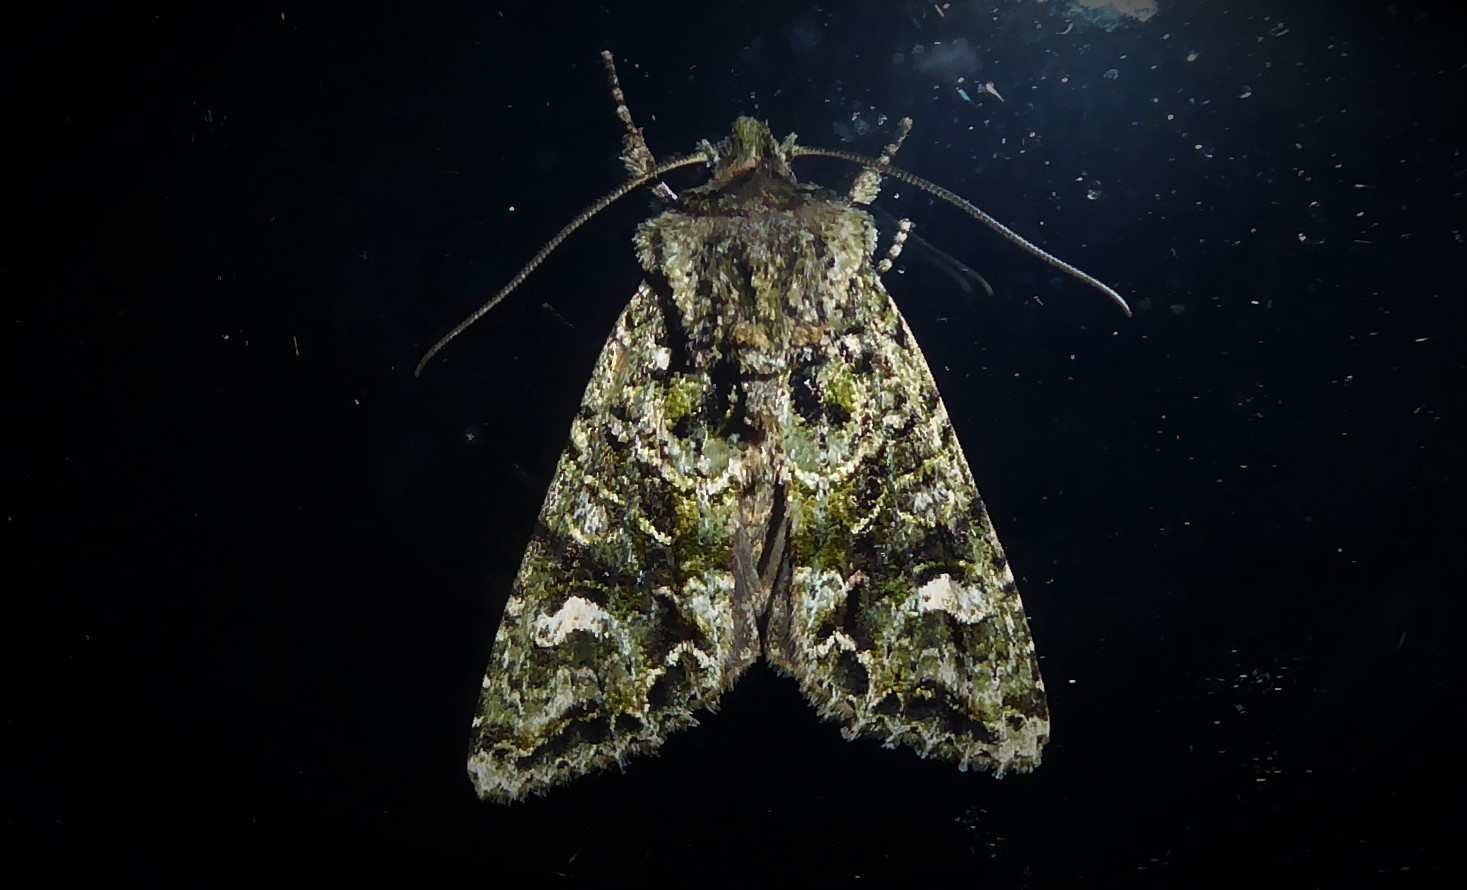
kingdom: Animalia
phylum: Arthropoda
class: Insecta
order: Lepidoptera
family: Noctuidae
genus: Ichneutica
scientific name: Ichneutica
